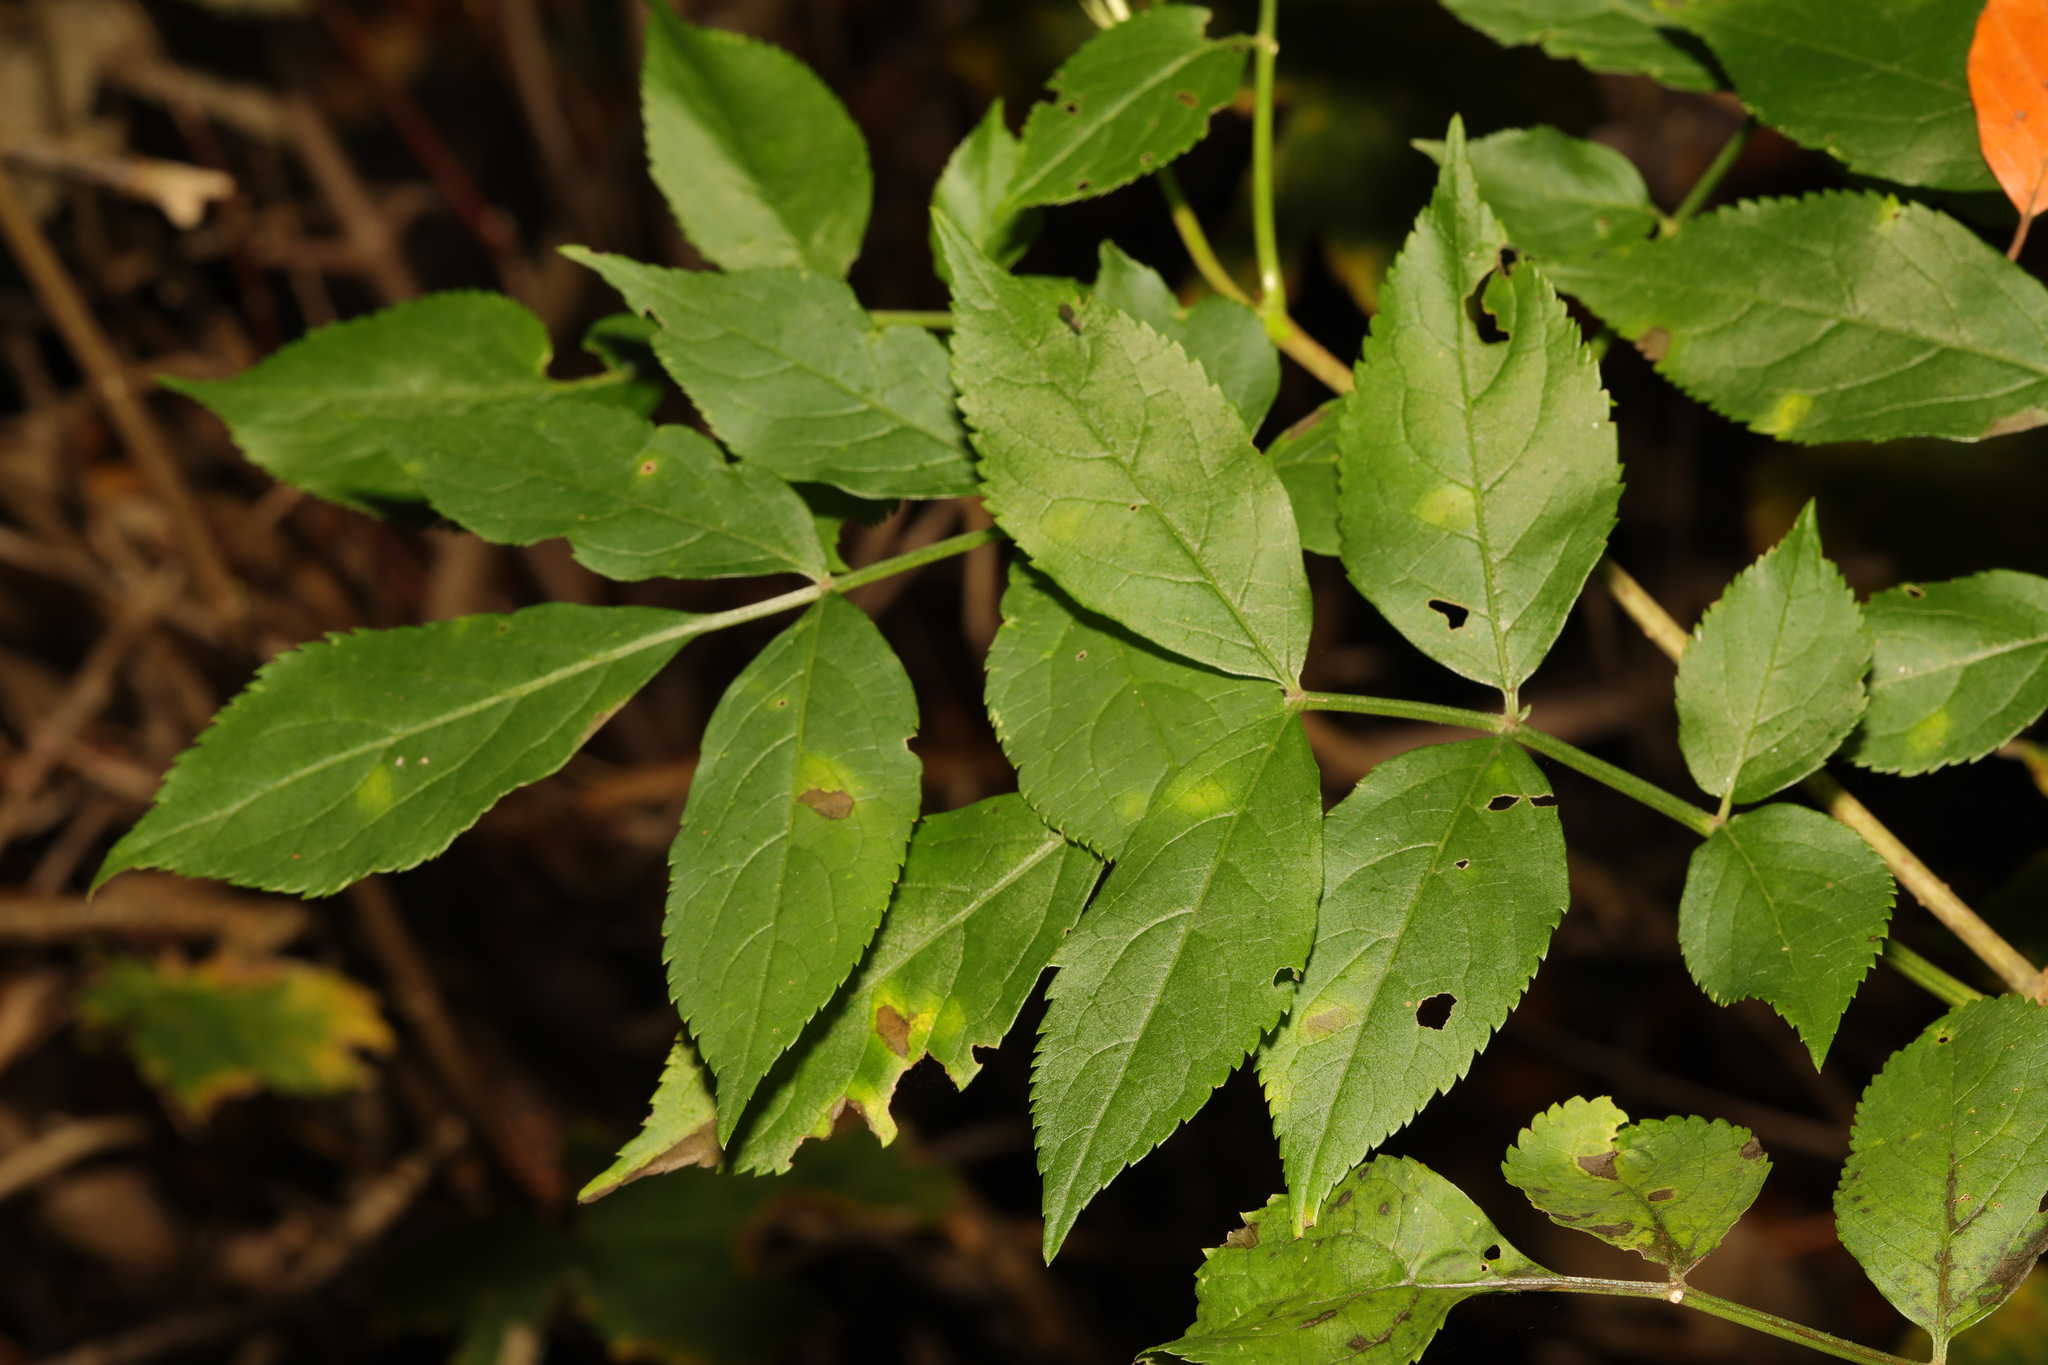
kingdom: Plantae
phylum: Tracheophyta
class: Magnoliopsida
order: Dipsacales
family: Viburnaceae
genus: Sambucus
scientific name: Sambucus nigra
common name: Elder
